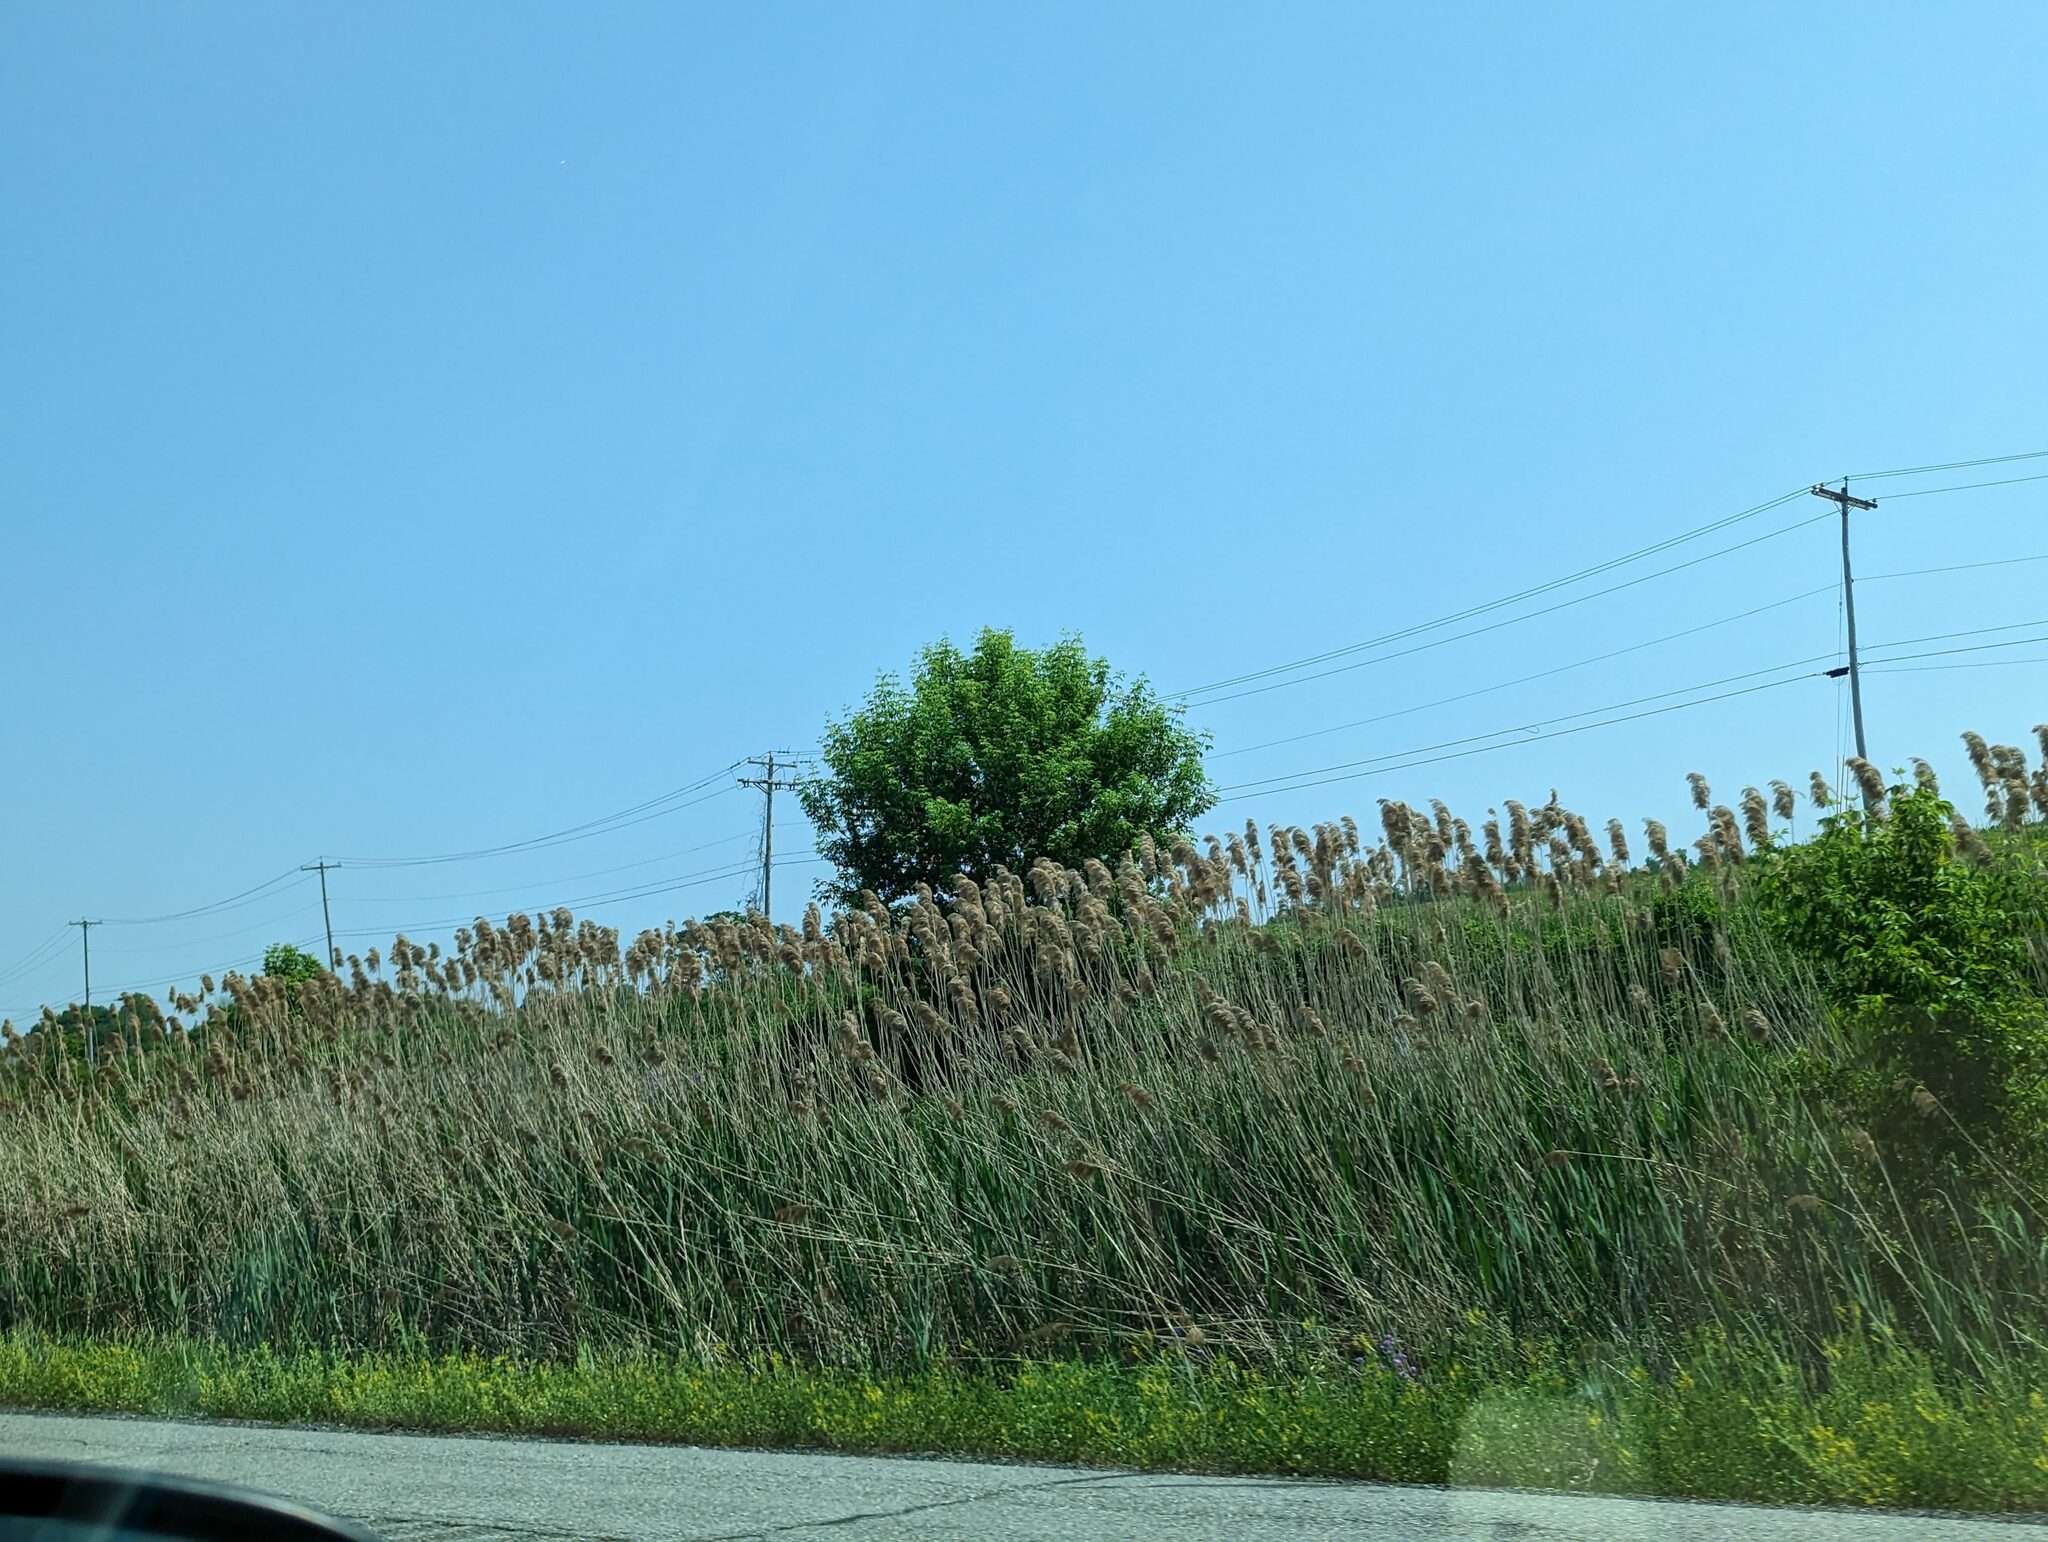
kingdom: Plantae
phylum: Tracheophyta
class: Liliopsida
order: Poales
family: Poaceae
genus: Phragmites
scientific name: Phragmites australis
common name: Common reed
